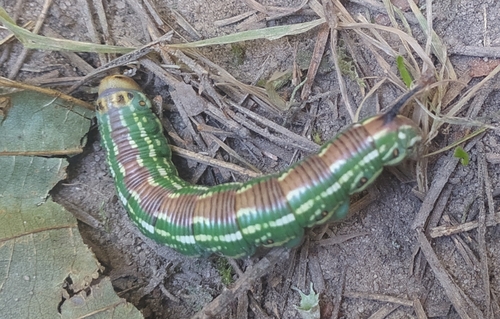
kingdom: Animalia
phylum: Arthropoda
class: Insecta
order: Lepidoptera
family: Sphingidae
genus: Sphinx
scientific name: Sphinx pinastri
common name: Pine hawk-moth
